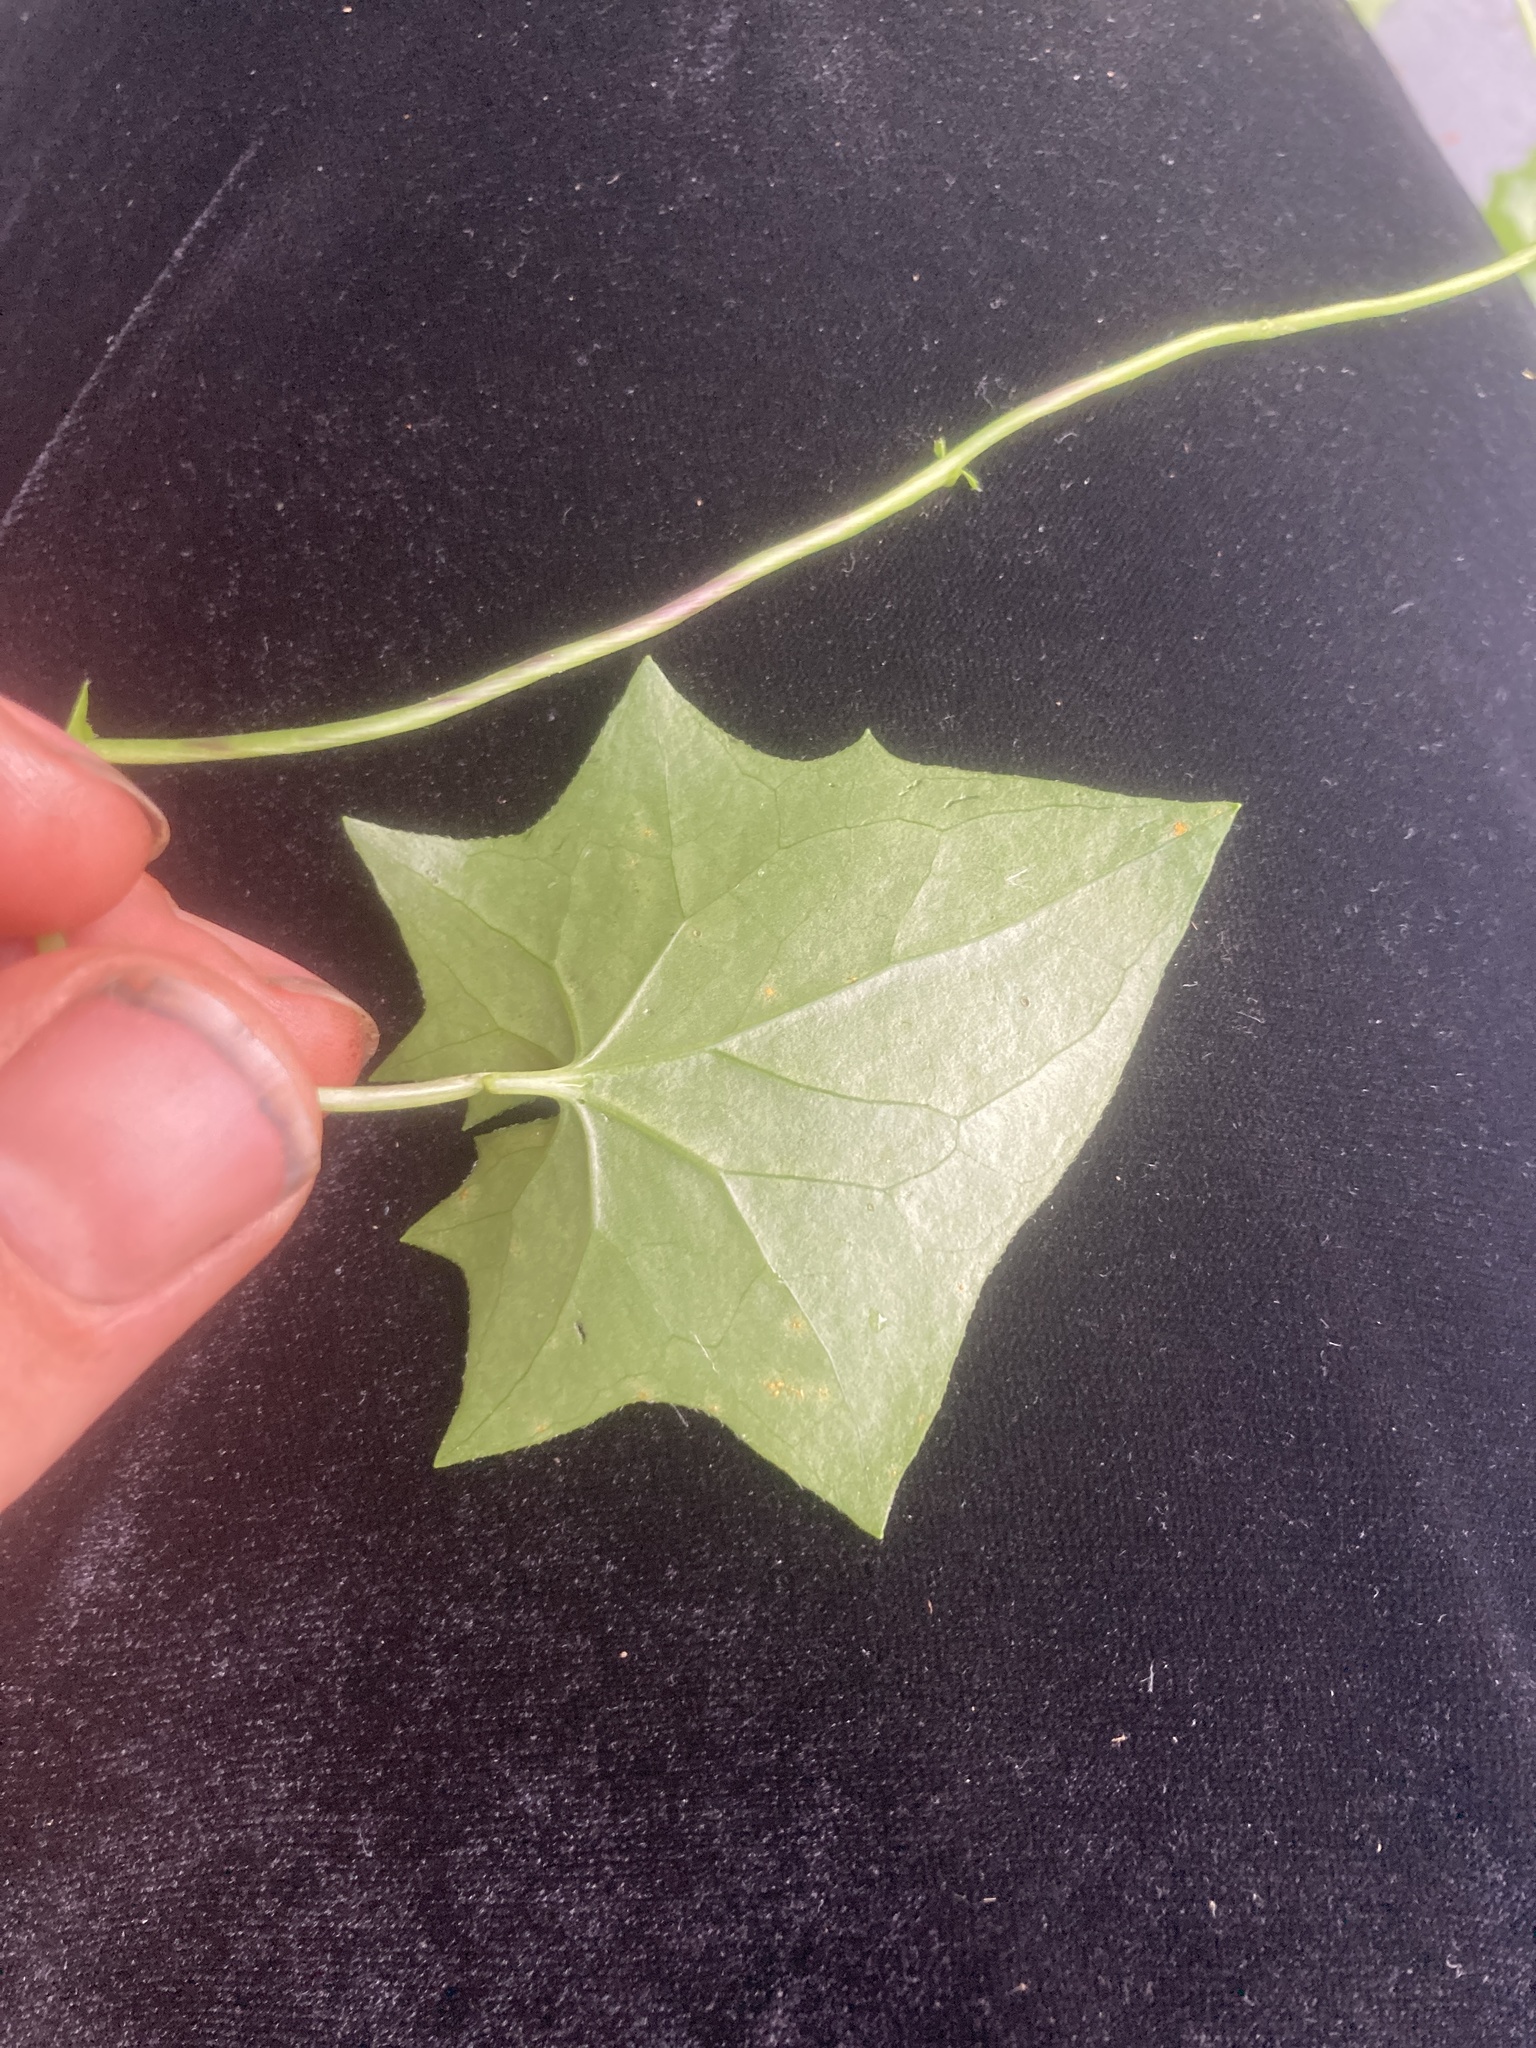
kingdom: Plantae
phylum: Tracheophyta
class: Magnoliopsida
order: Asterales
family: Asteraceae
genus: Delairea
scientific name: Delairea odorata
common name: Cape-ivy
